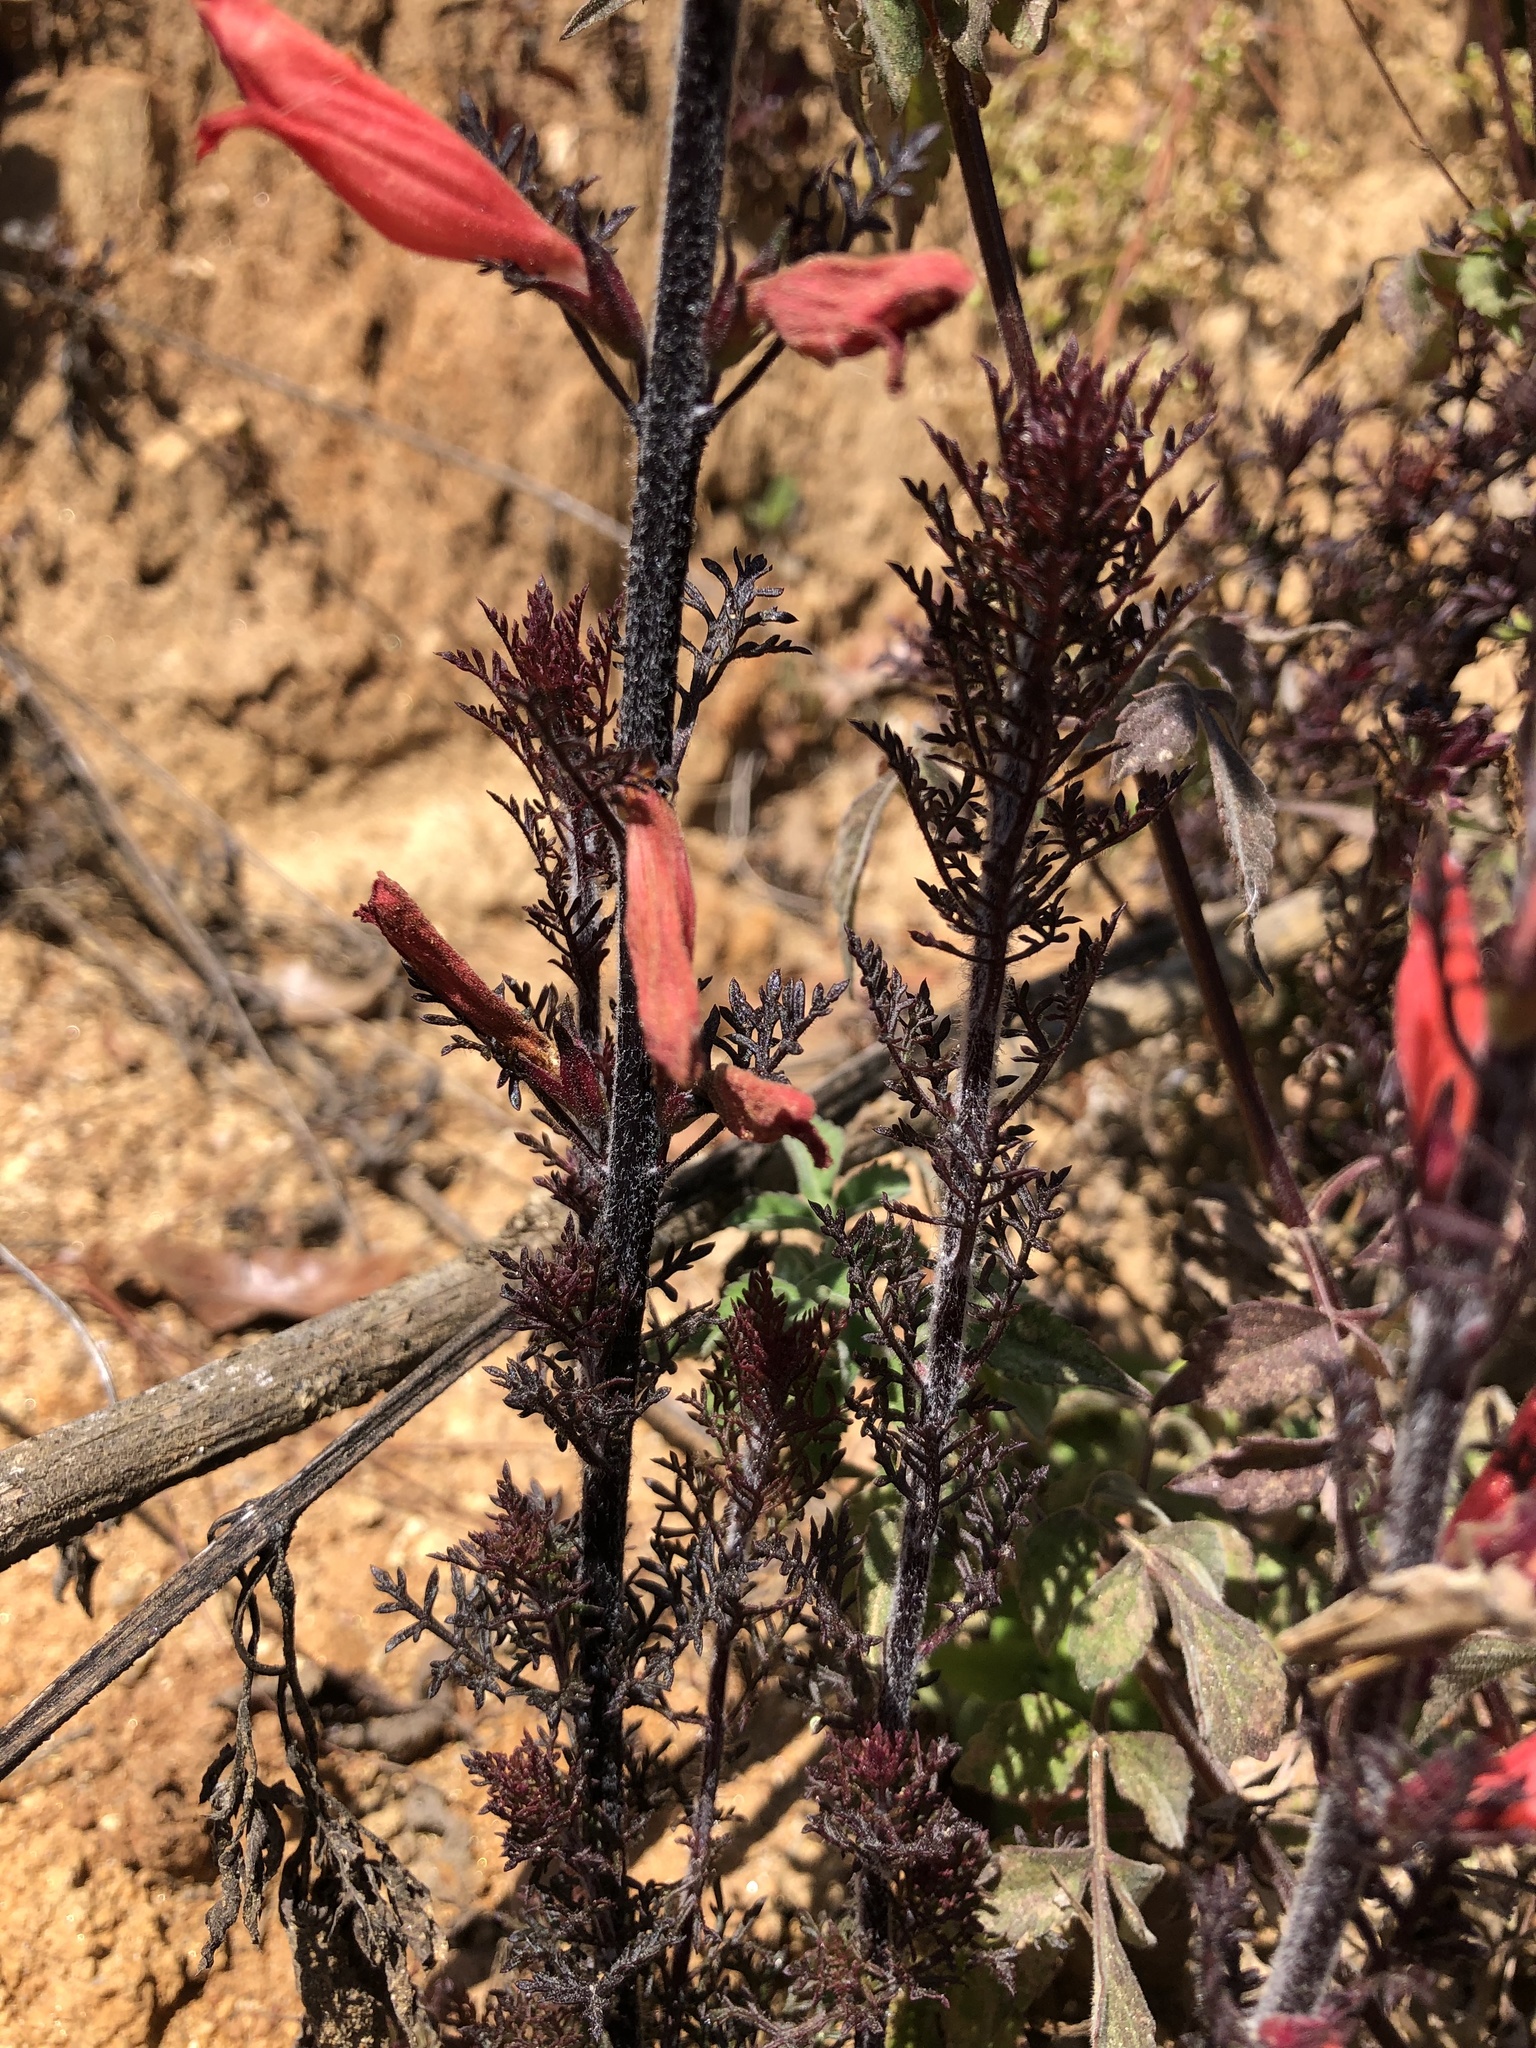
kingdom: Plantae
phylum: Tracheophyta
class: Magnoliopsida
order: Lamiales
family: Orobanchaceae
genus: Lamourouxia
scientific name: Lamourouxia multifida
